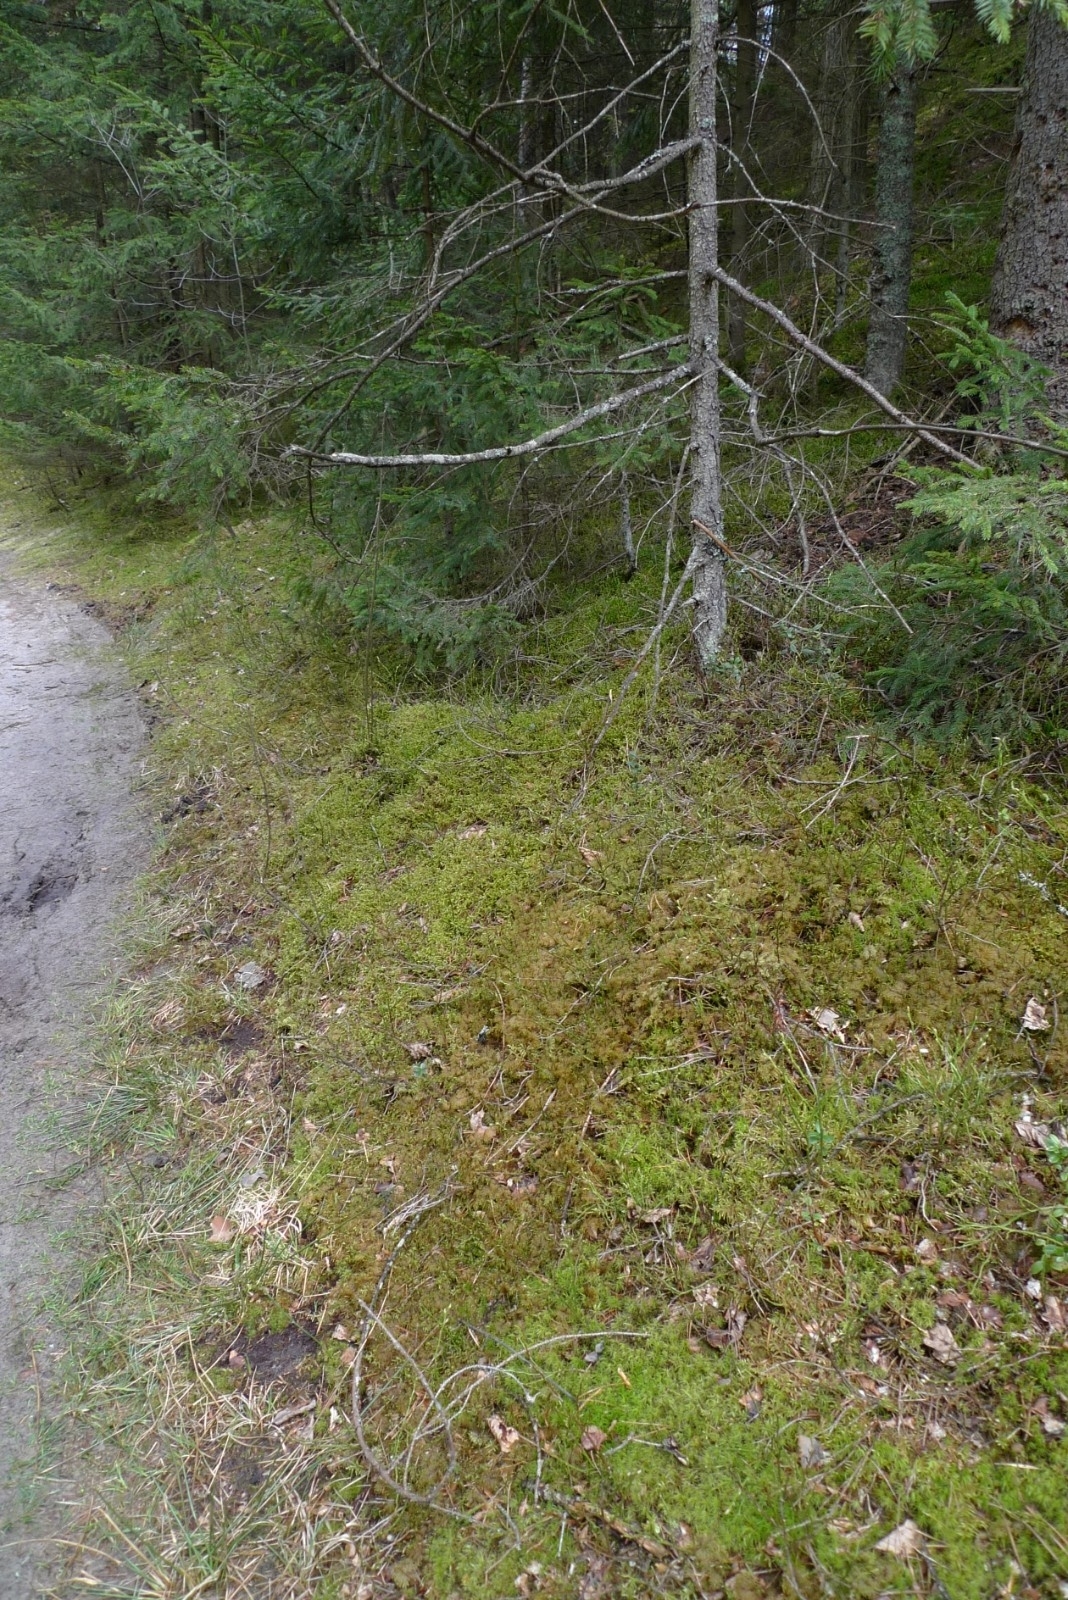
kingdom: Plantae
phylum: Bryophyta
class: Bryopsida
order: Hypnales
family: Hylocomiaceae
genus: Pleurozium
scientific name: Pleurozium schreberi
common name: Red-stemmed feather moss
